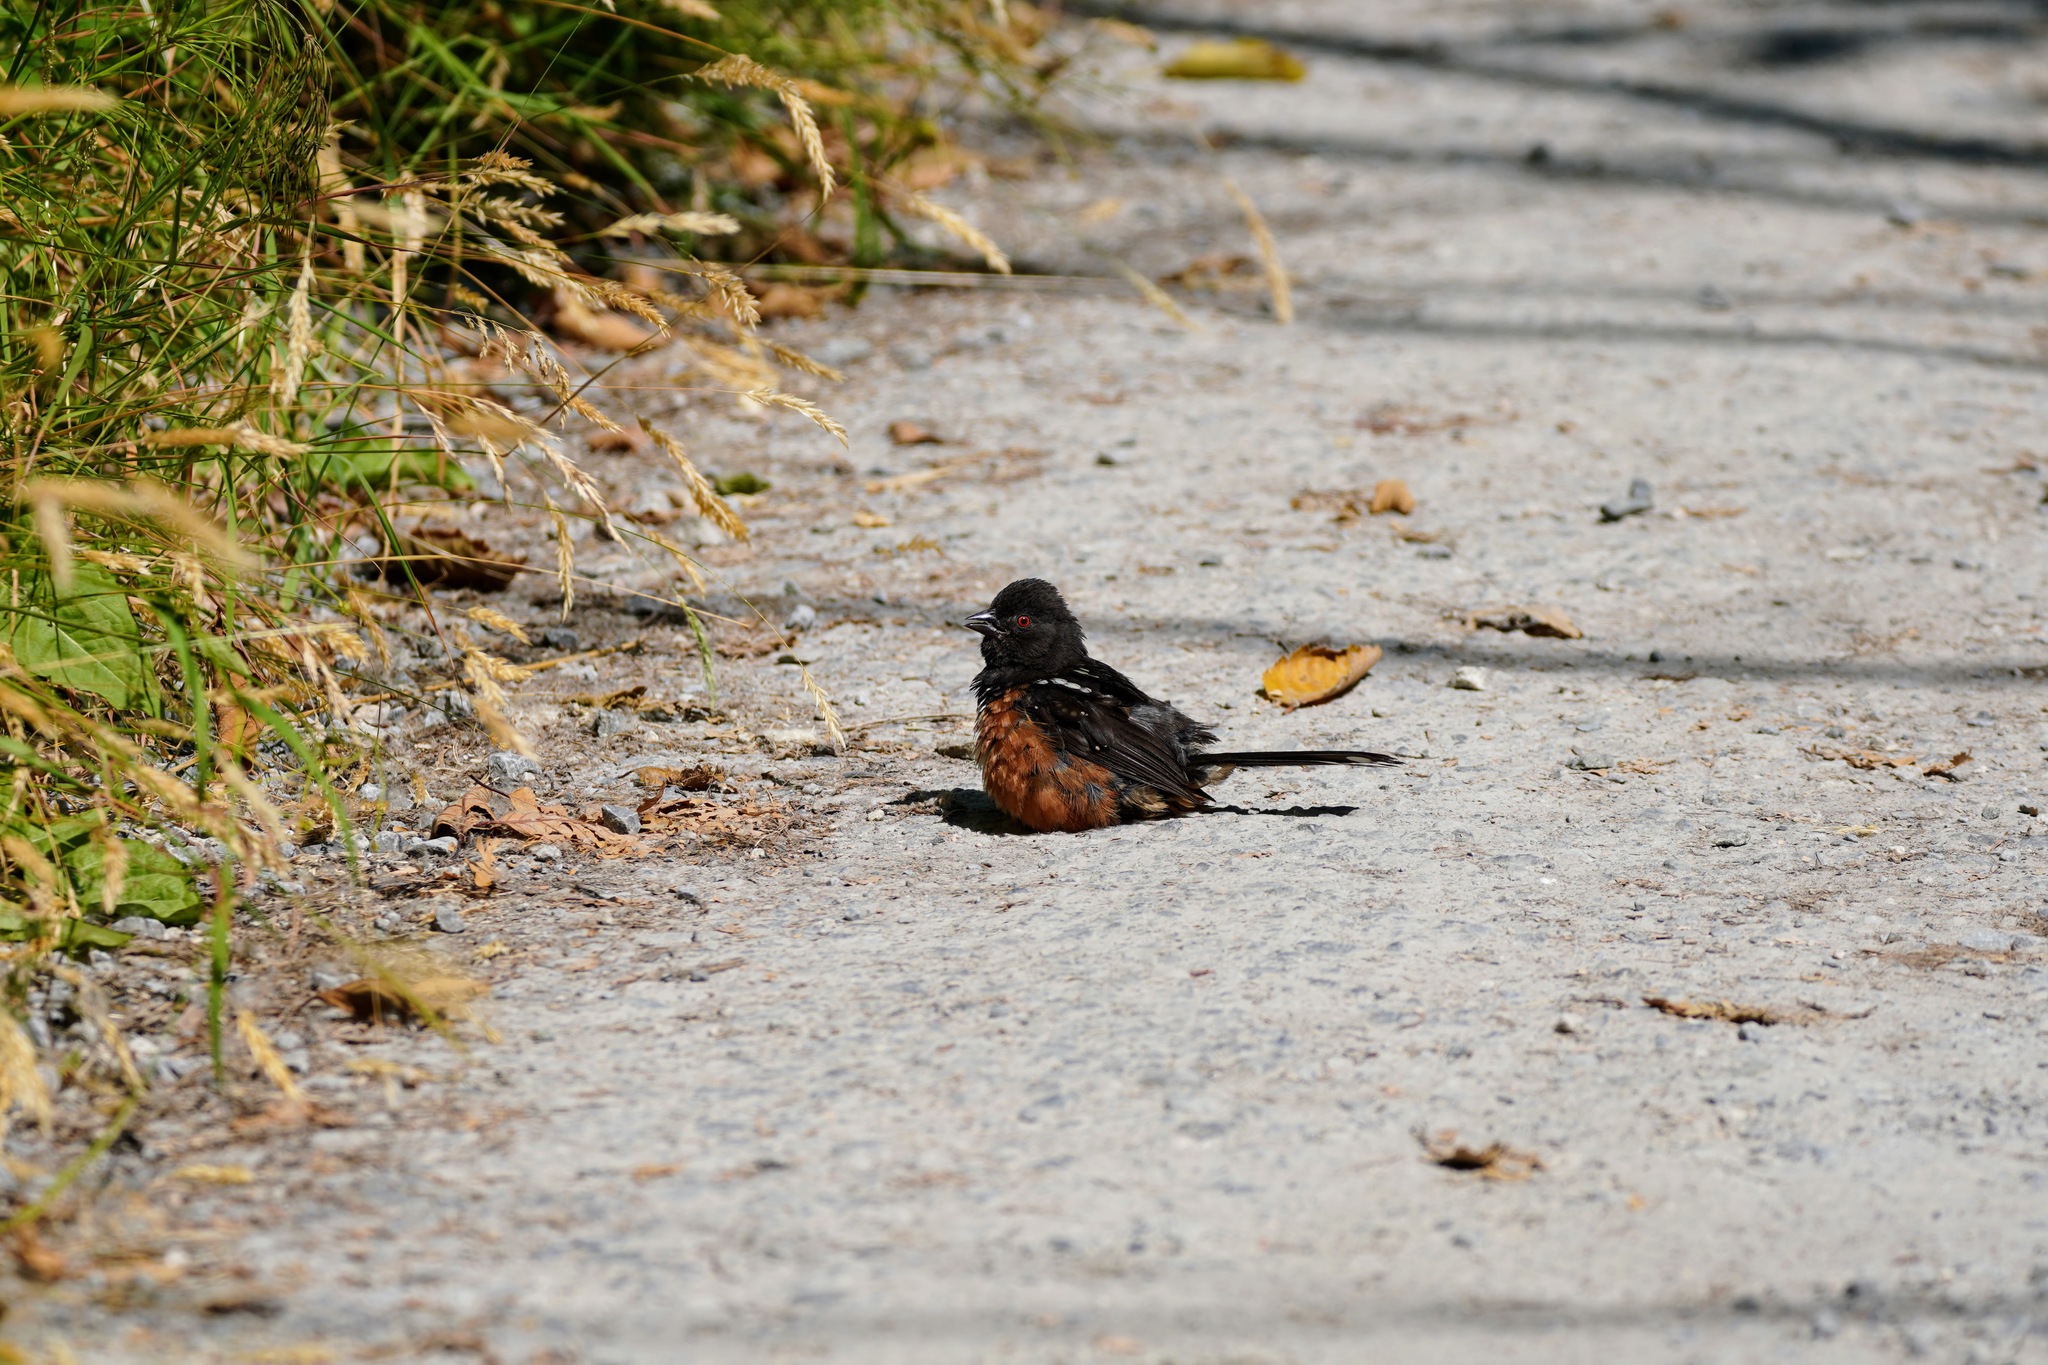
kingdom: Animalia
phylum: Chordata
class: Aves
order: Passeriformes
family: Passerellidae
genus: Pipilo
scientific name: Pipilo maculatus
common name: Spotted towhee
